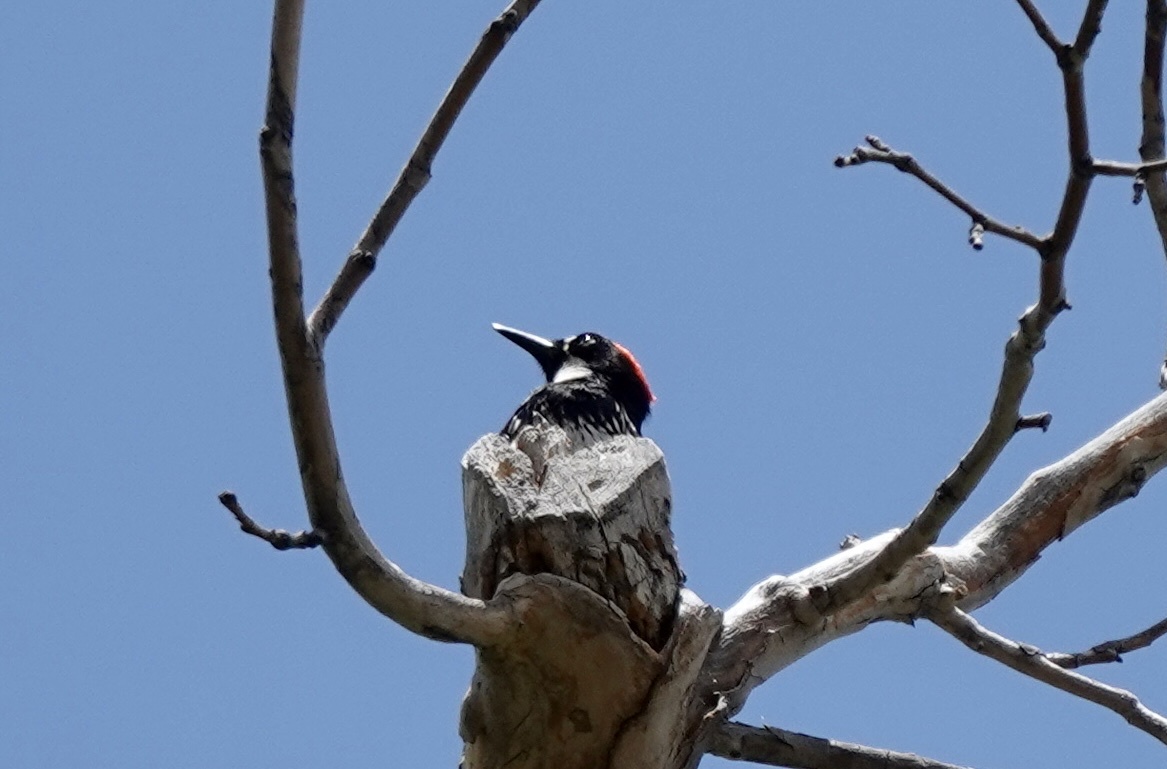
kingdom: Animalia
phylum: Chordata
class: Aves
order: Piciformes
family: Picidae
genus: Melanerpes
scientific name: Melanerpes formicivorus
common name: Acorn woodpecker
